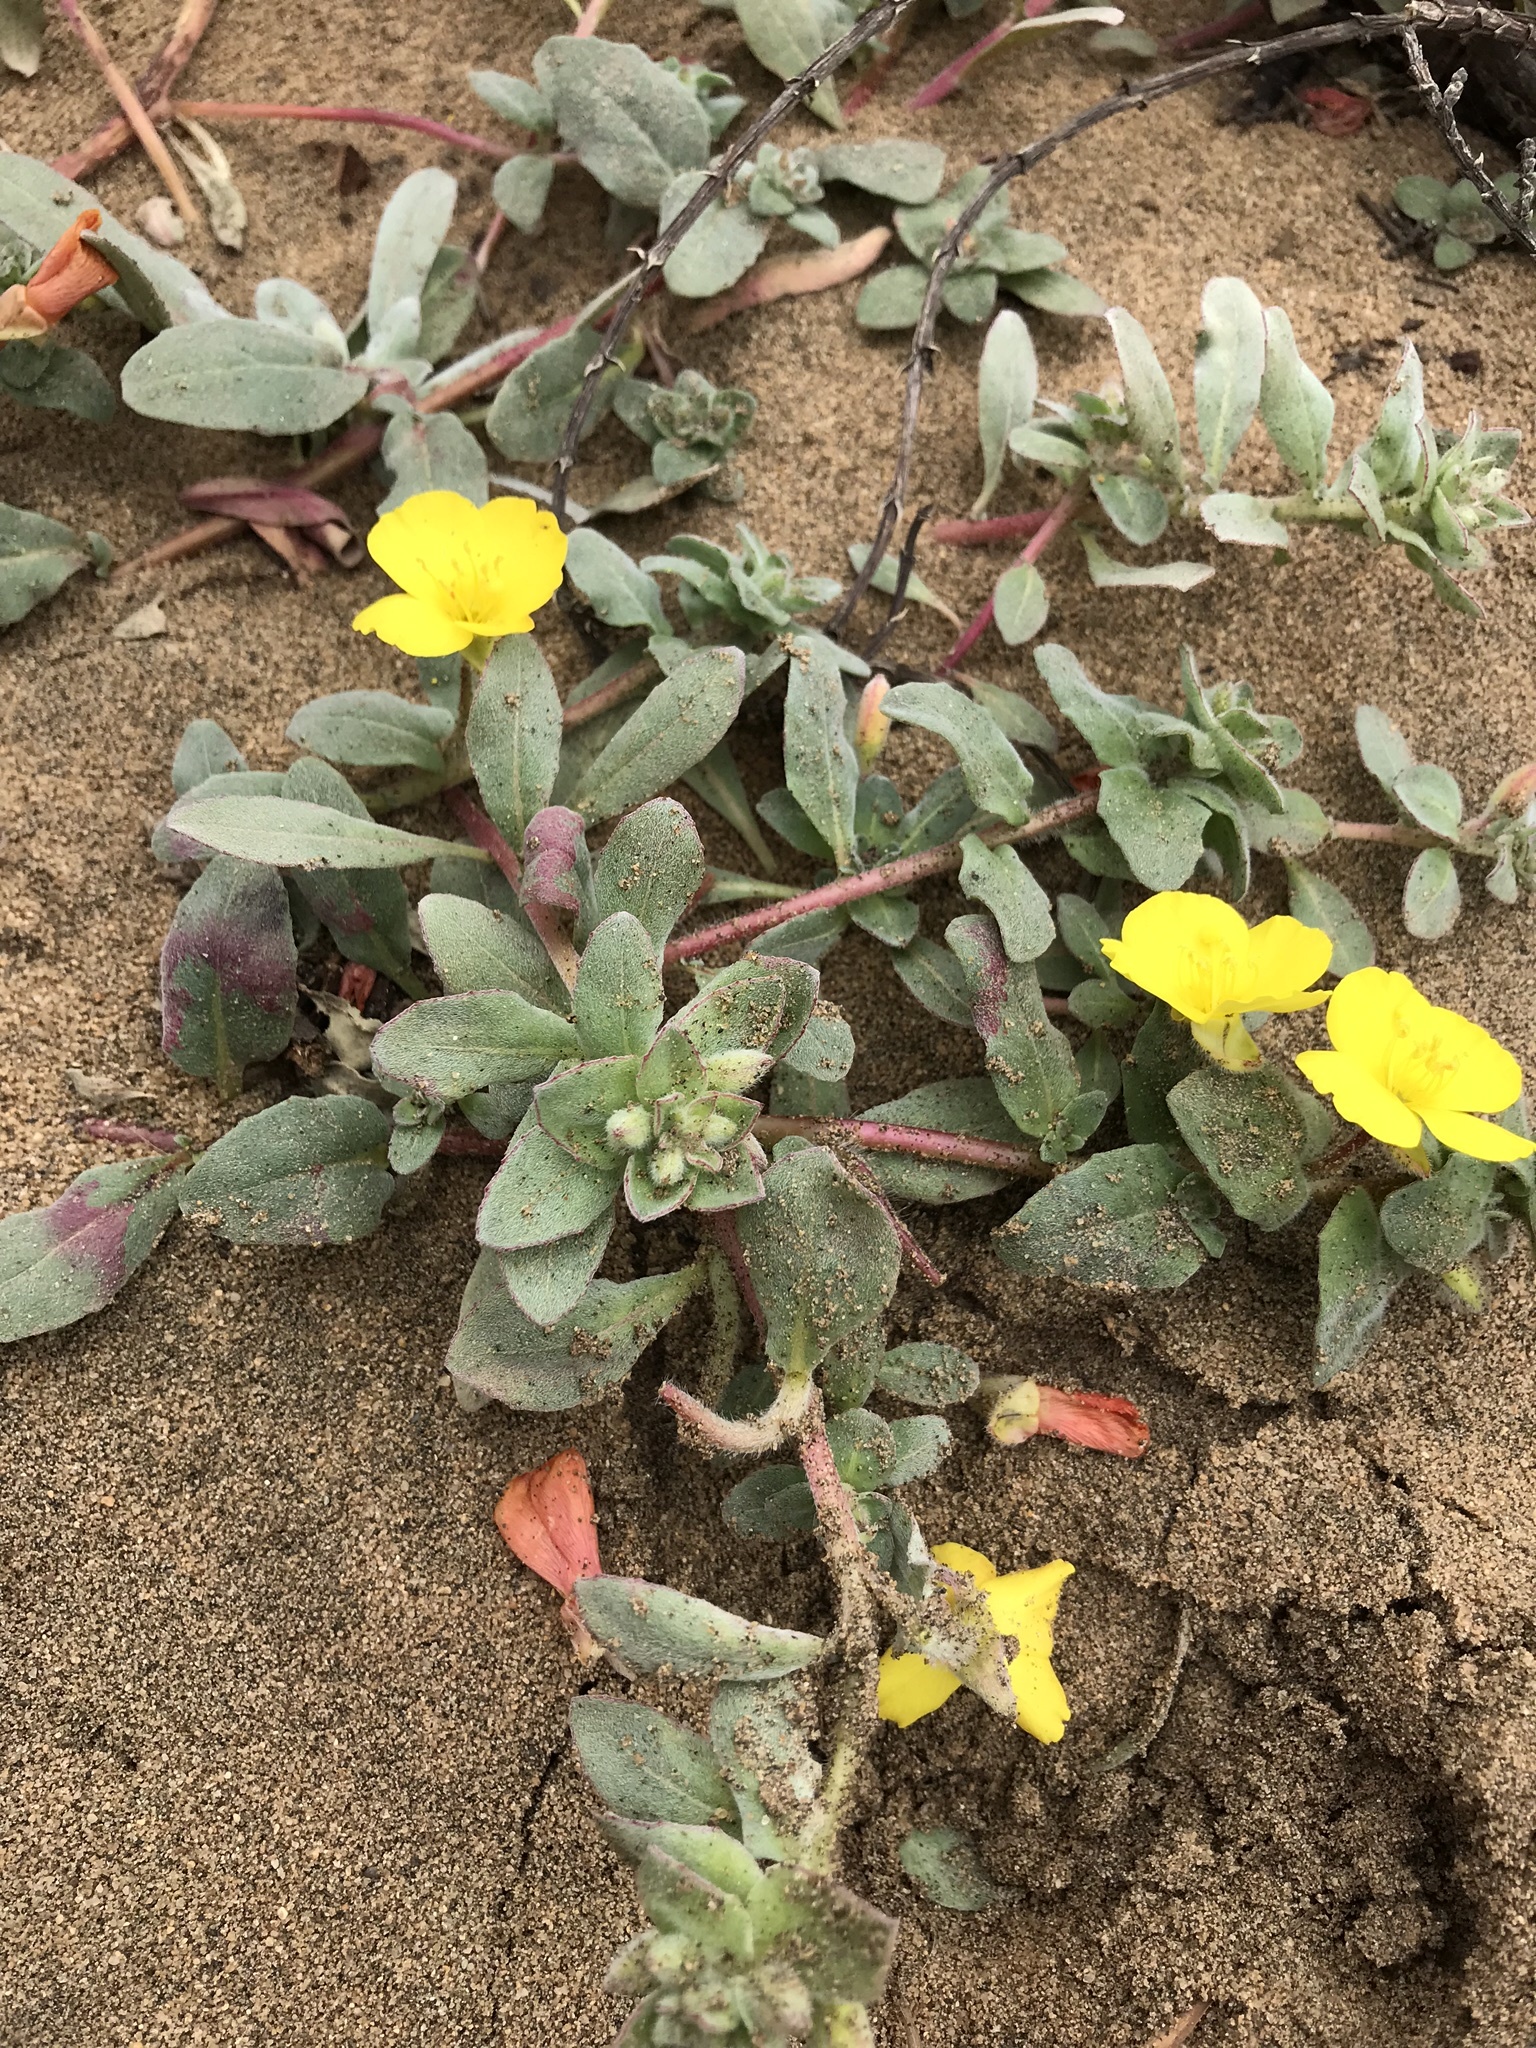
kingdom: Plantae
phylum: Tracheophyta
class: Magnoliopsida
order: Myrtales
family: Onagraceae
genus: Camissoniopsis
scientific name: Camissoniopsis cheiranthifolia
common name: Beach suncup
